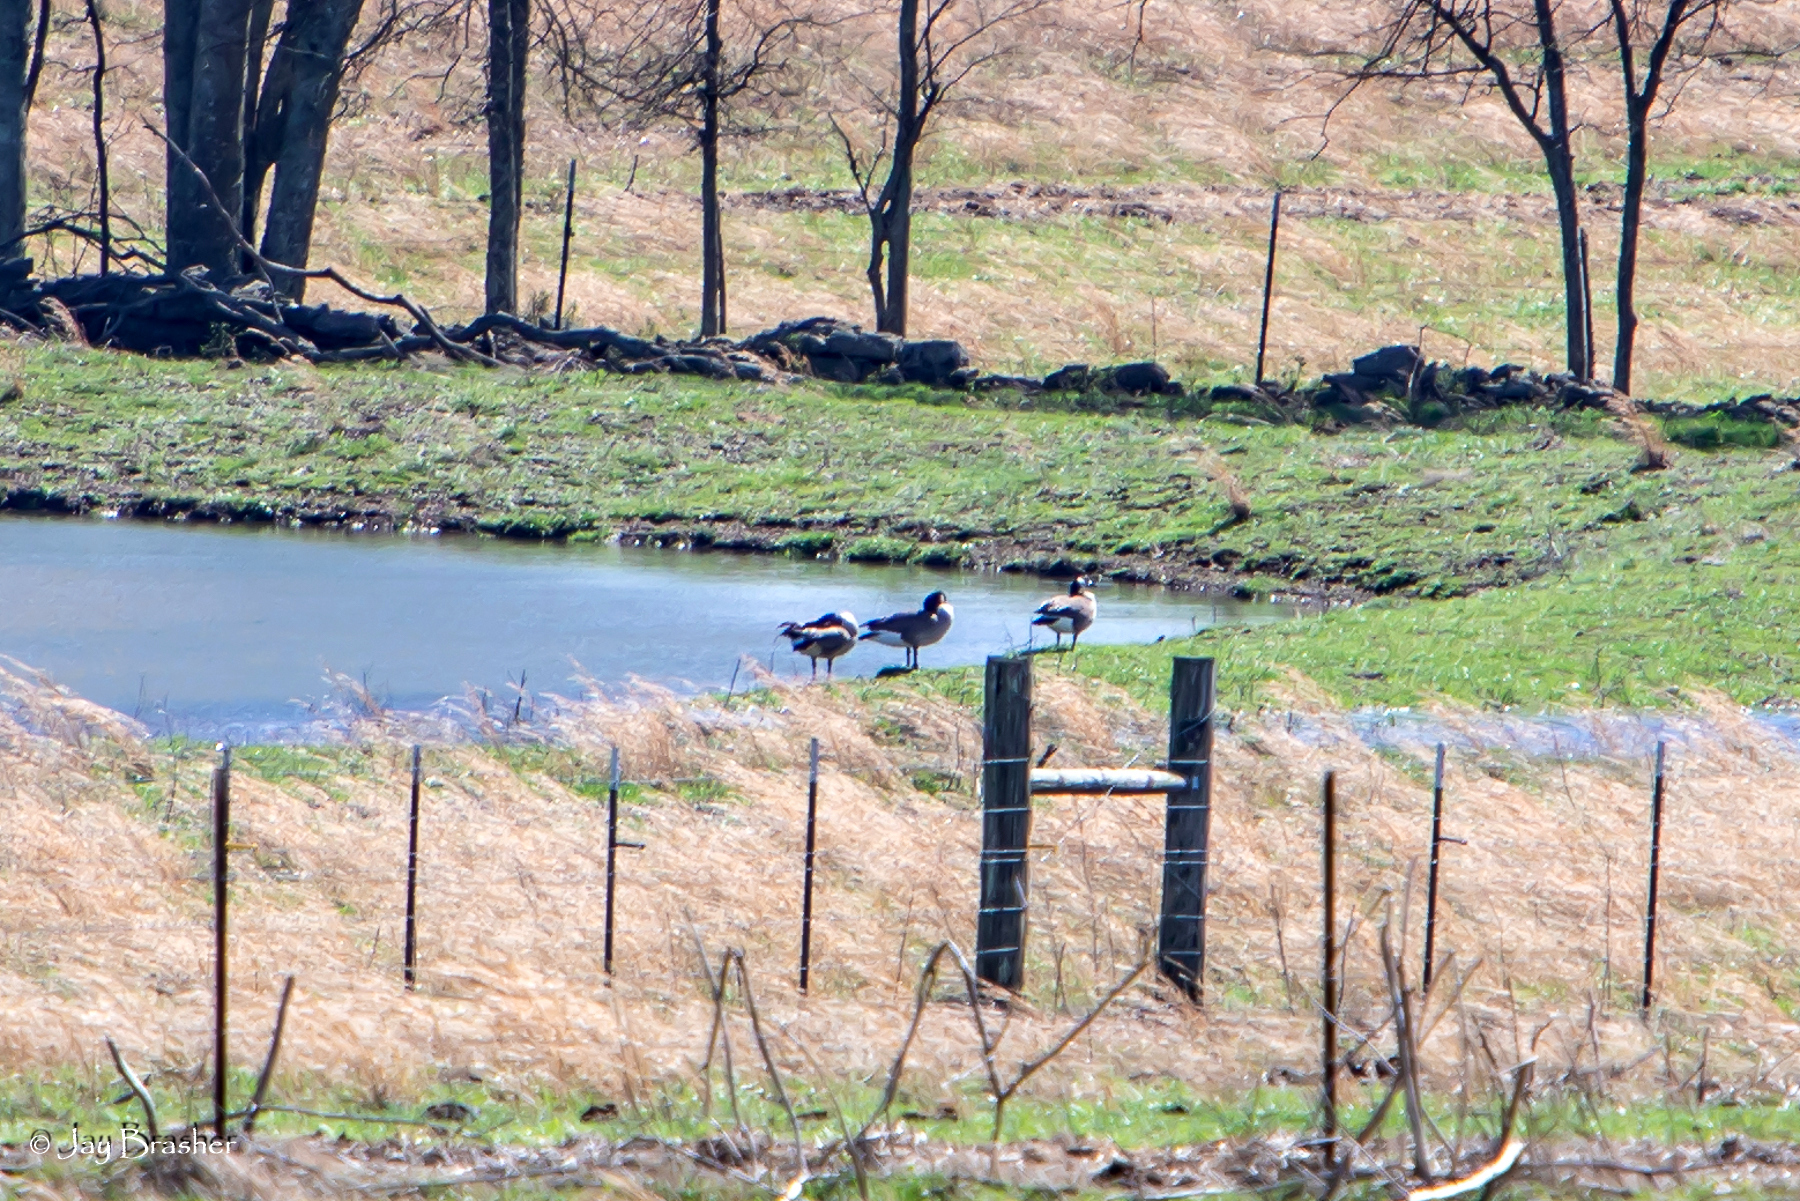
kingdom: Animalia
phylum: Chordata
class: Aves
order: Anseriformes
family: Anatidae
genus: Branta
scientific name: Branta canadensis
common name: Canada goose
